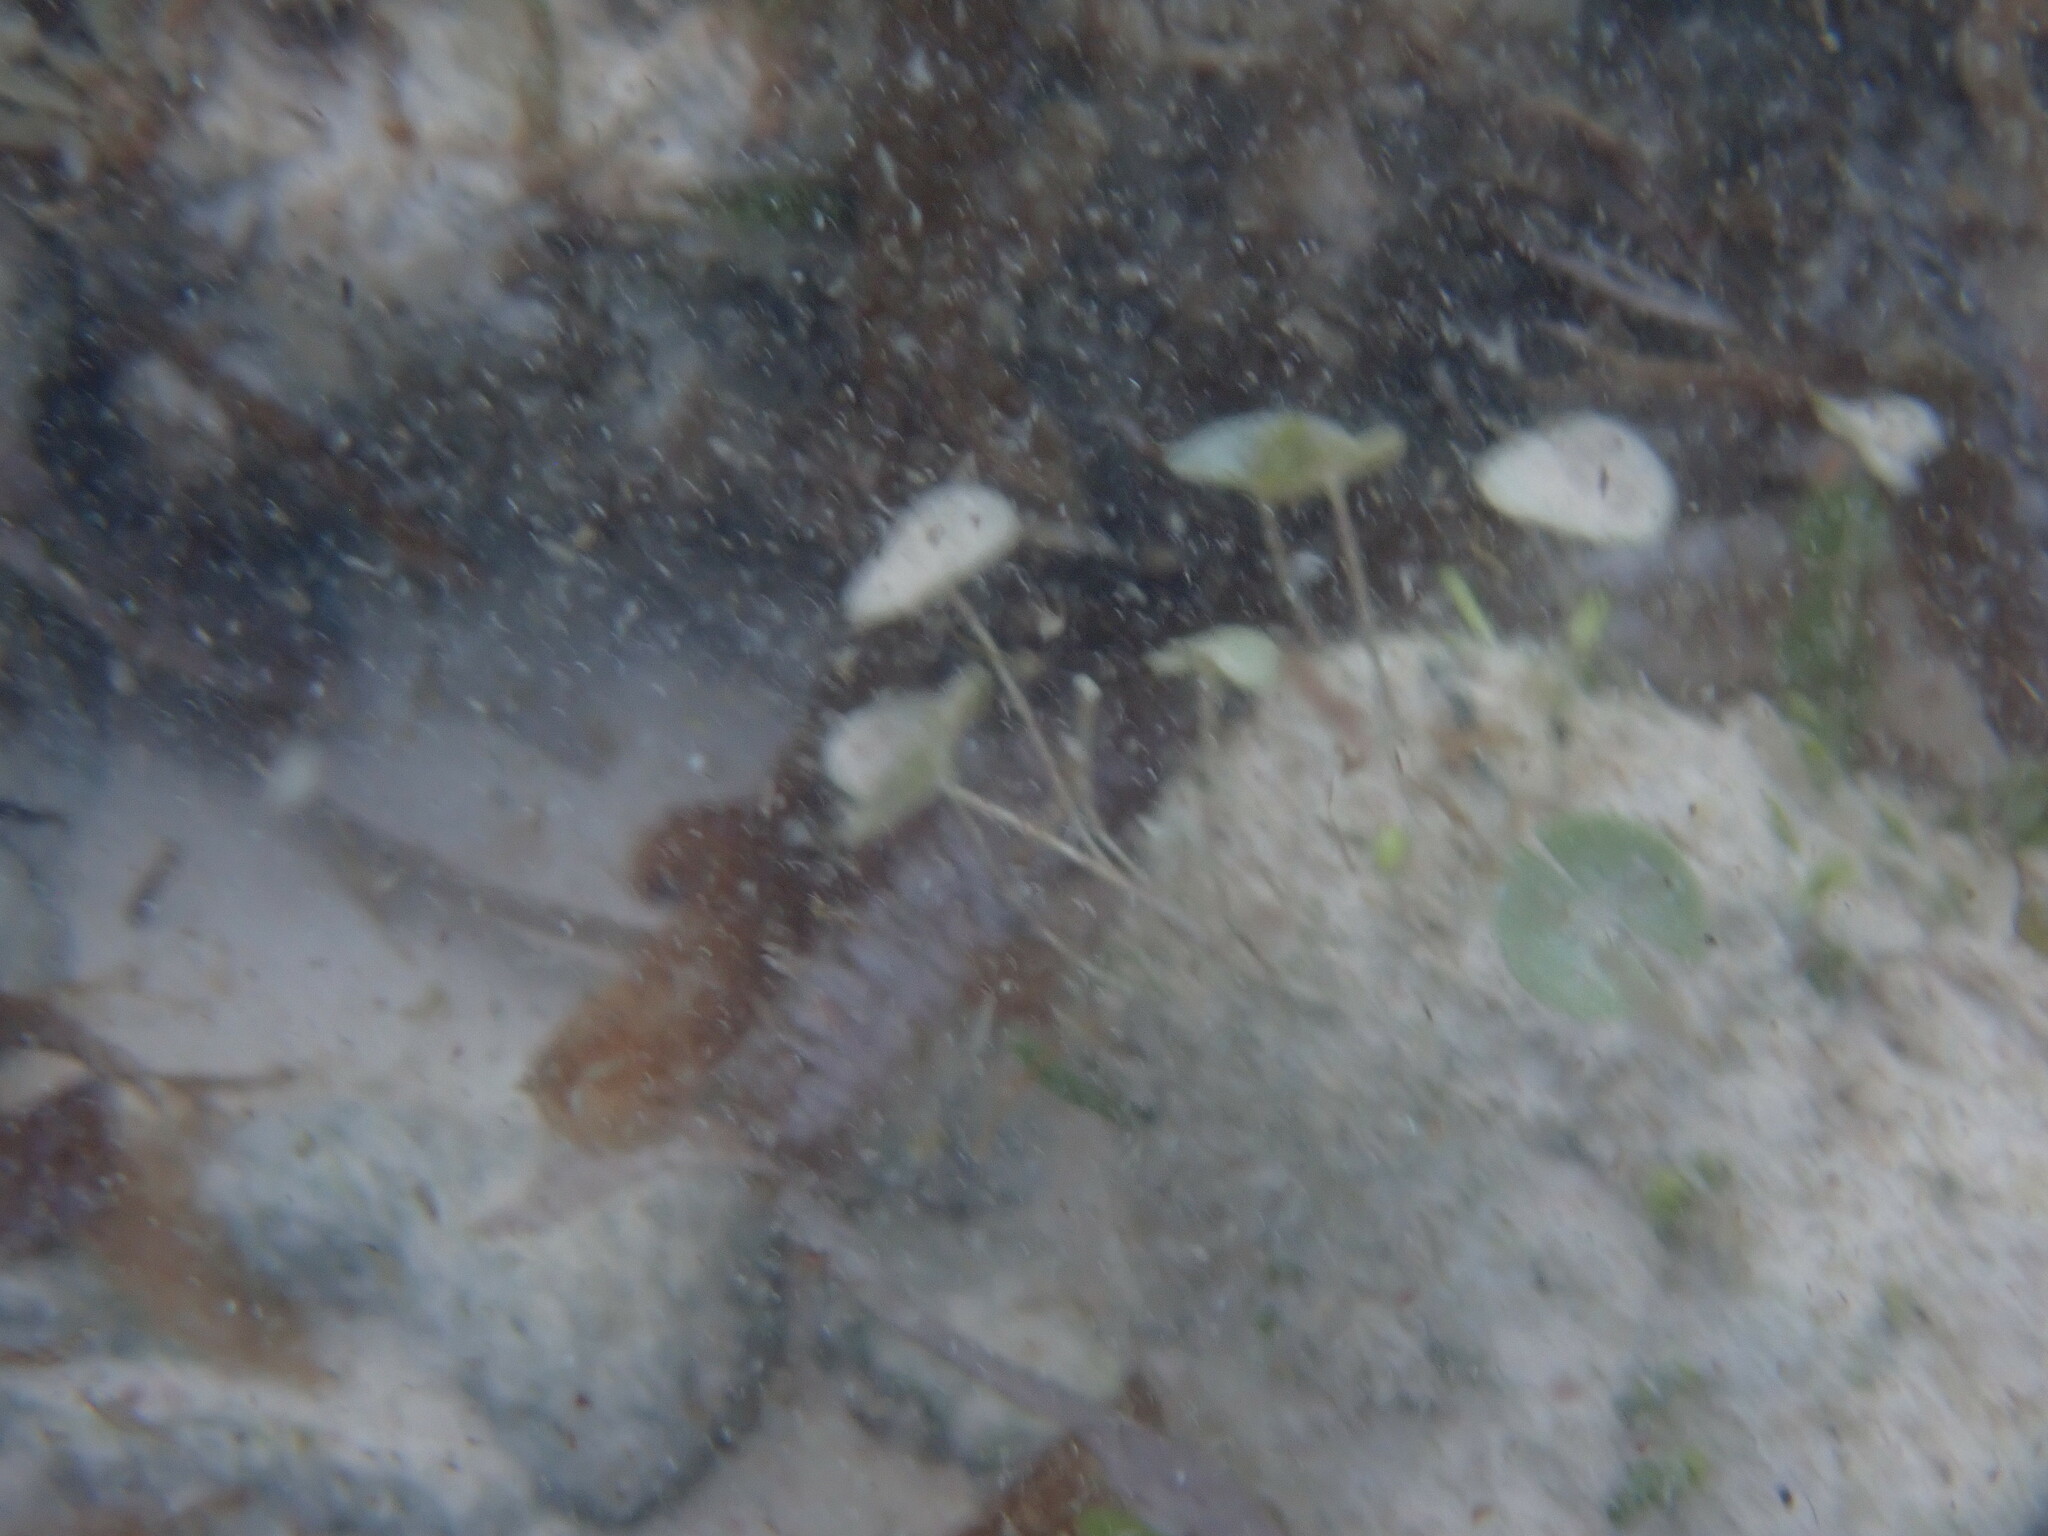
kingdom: Plantae
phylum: Chlorophyta
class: Ulvophyceae
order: Dasycladales
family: Polyphysaceae
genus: Acetabularia
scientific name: Acetabularia acetabulum
